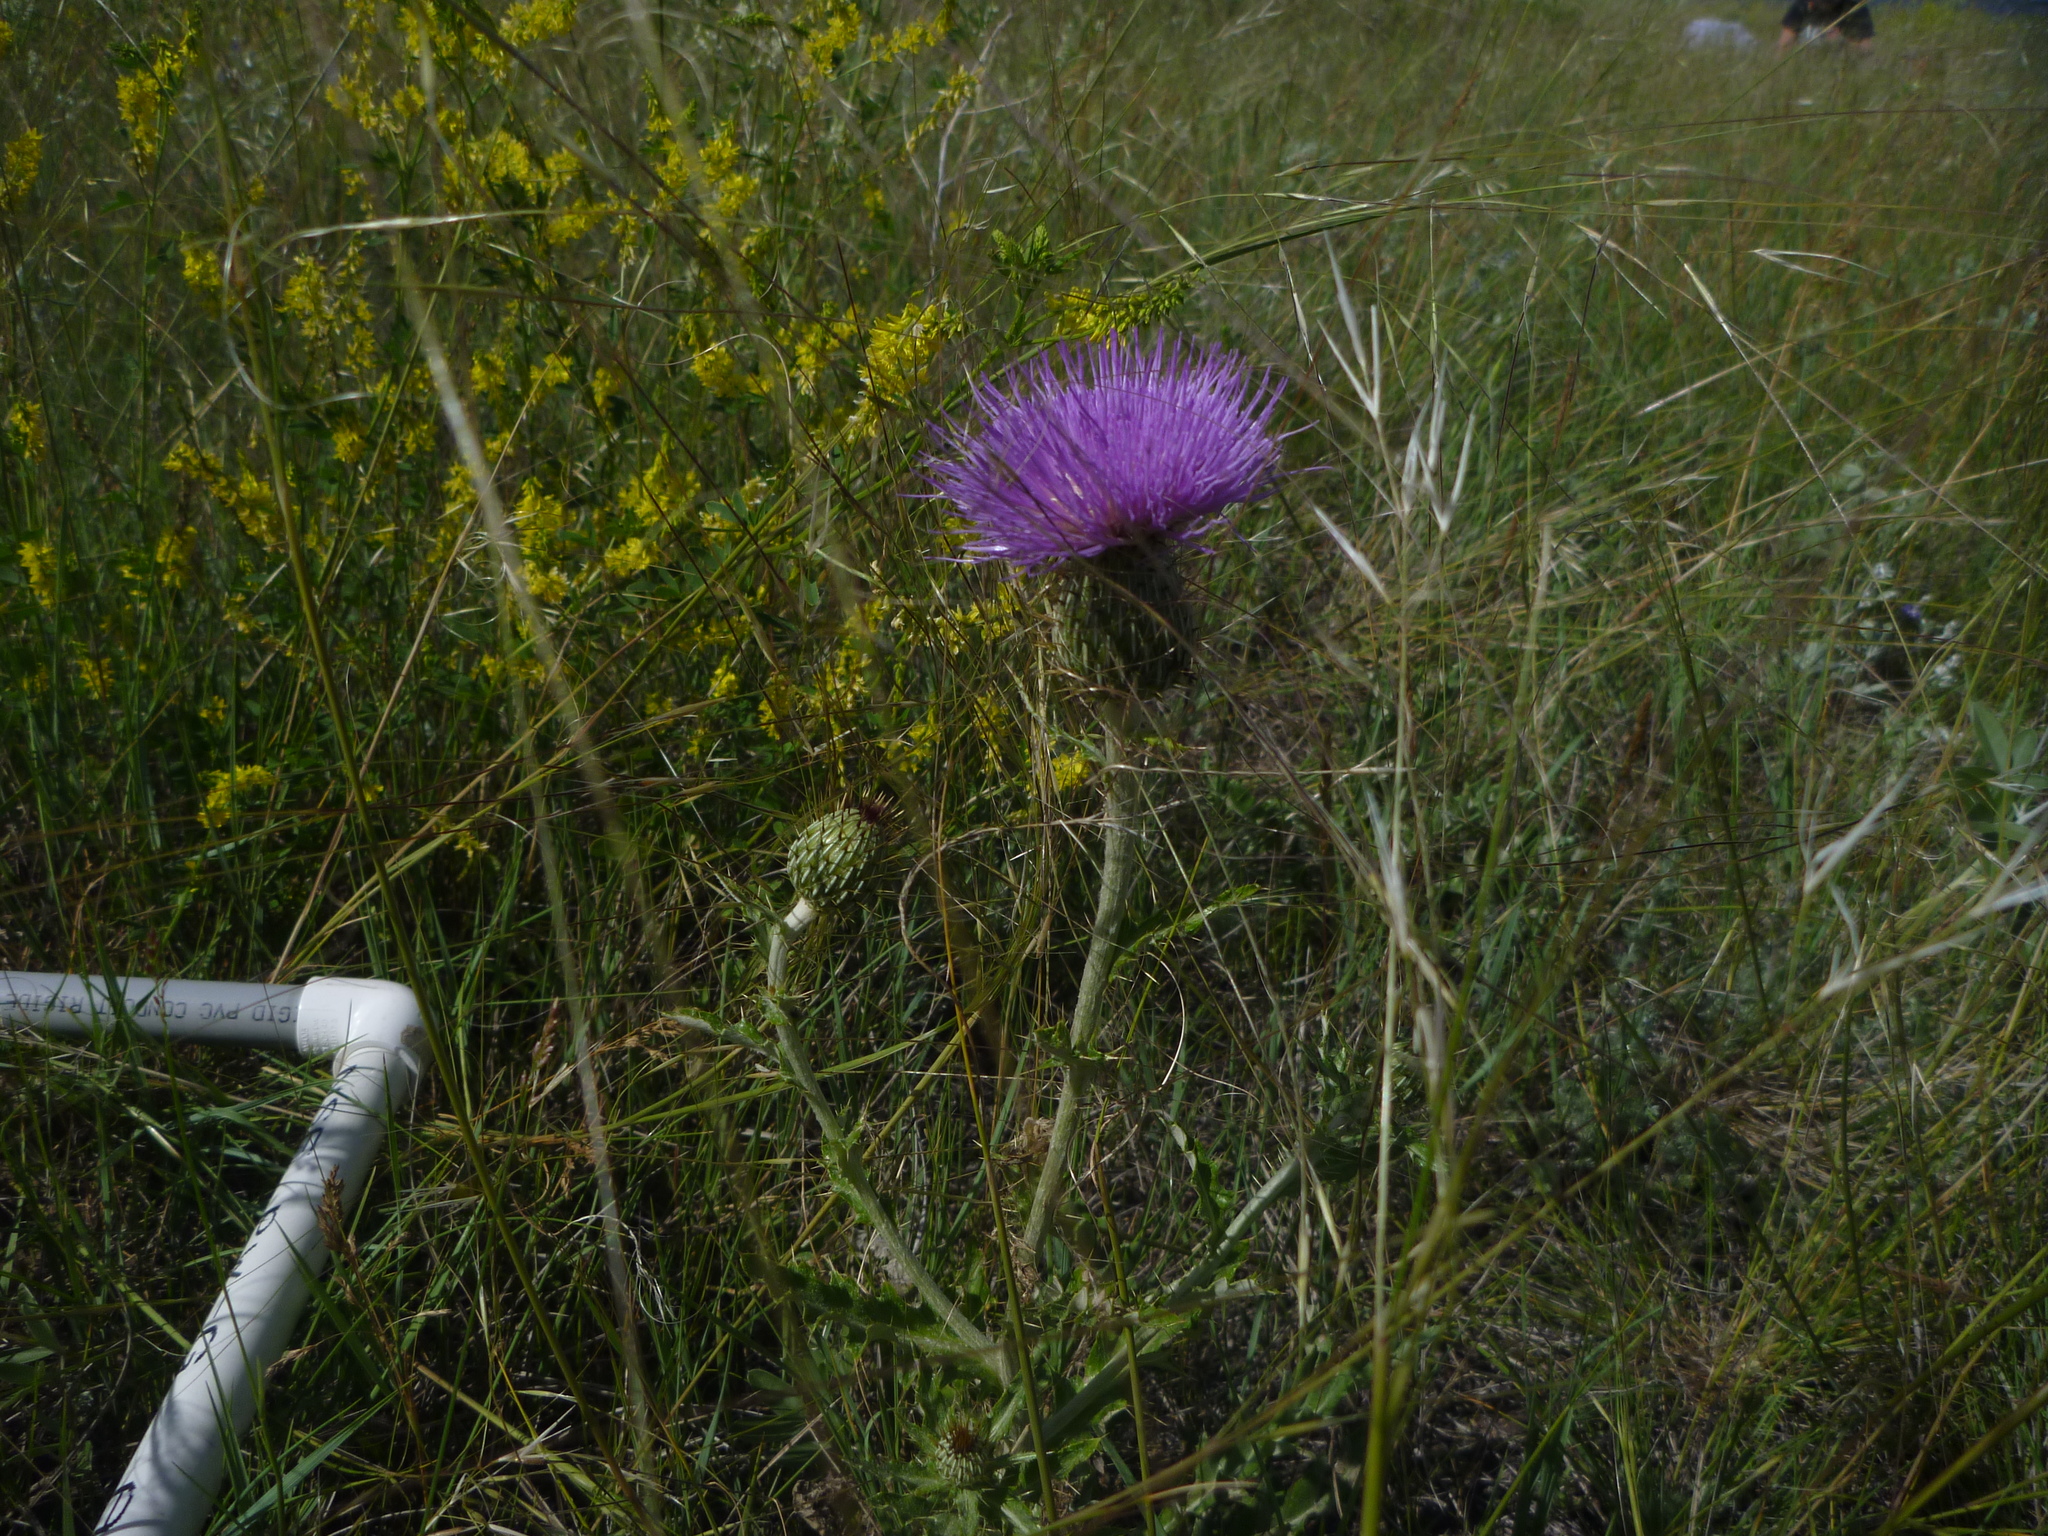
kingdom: Plantae
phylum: Tracheophyta
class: Magnoliopsida
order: Asterales
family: Asteraceae
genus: Cirsium
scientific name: Cirsium flodmanii
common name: Flodman's thistle
